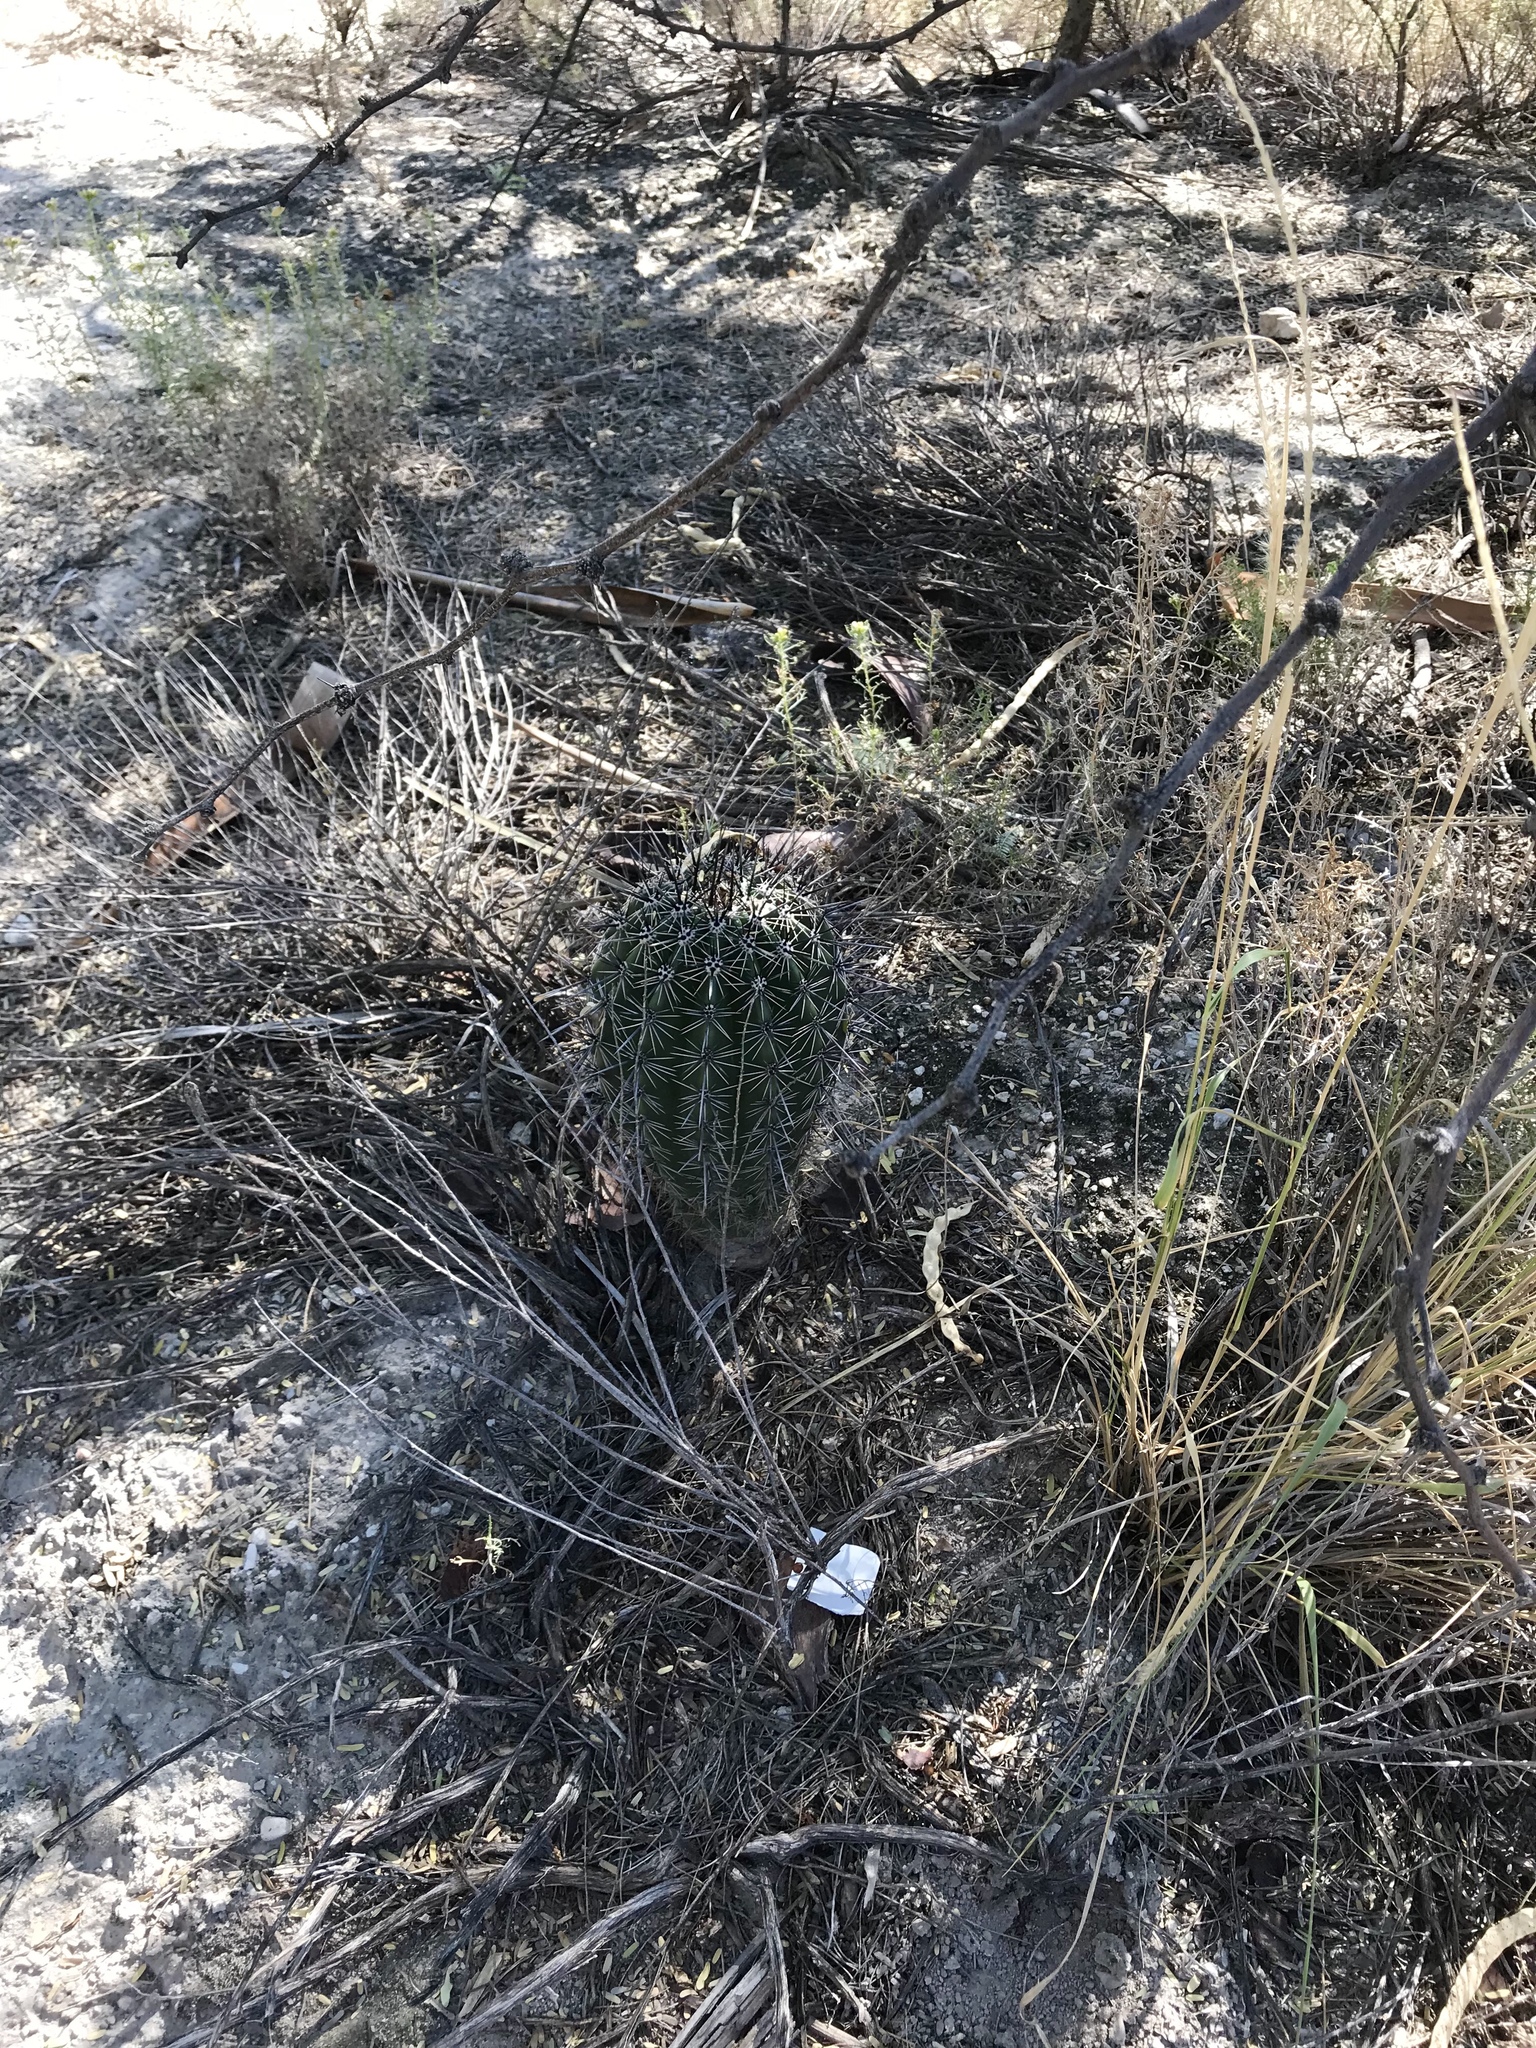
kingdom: Plantae
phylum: Tracheophyta
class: Magnoliopsida
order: Caryophyllales
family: Cactaceae
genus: Carnegiea
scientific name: Carnegiea gigantea
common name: Saguaro
